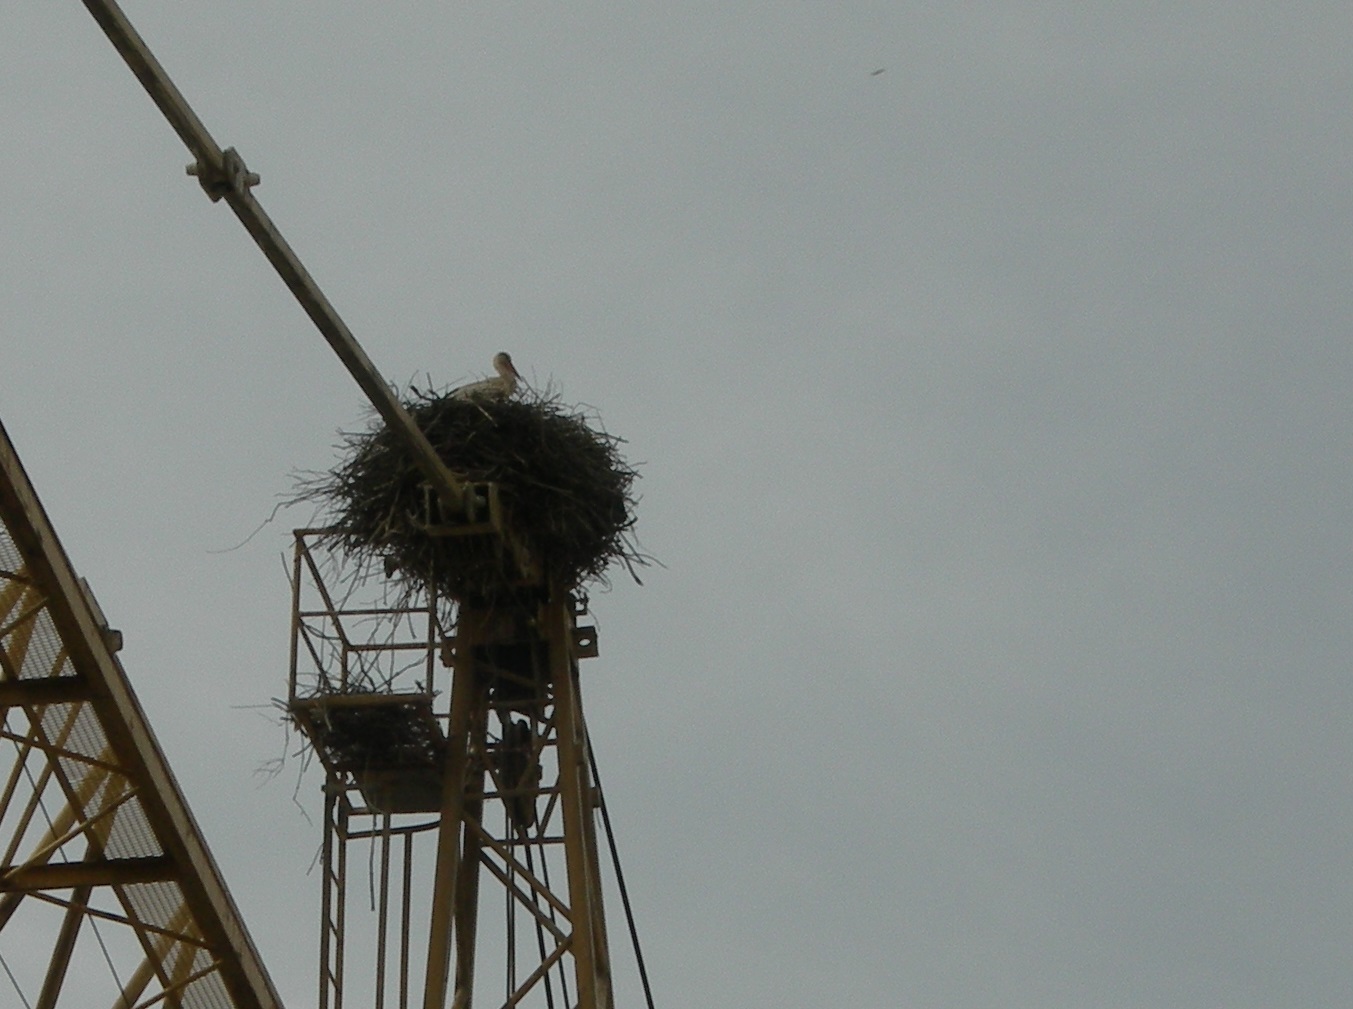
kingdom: Animalia
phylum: Chordata
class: Aves
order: Ciconiiformes
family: Ciconiidae
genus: Ciconia
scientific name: Ciconia ciconia
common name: White stork
